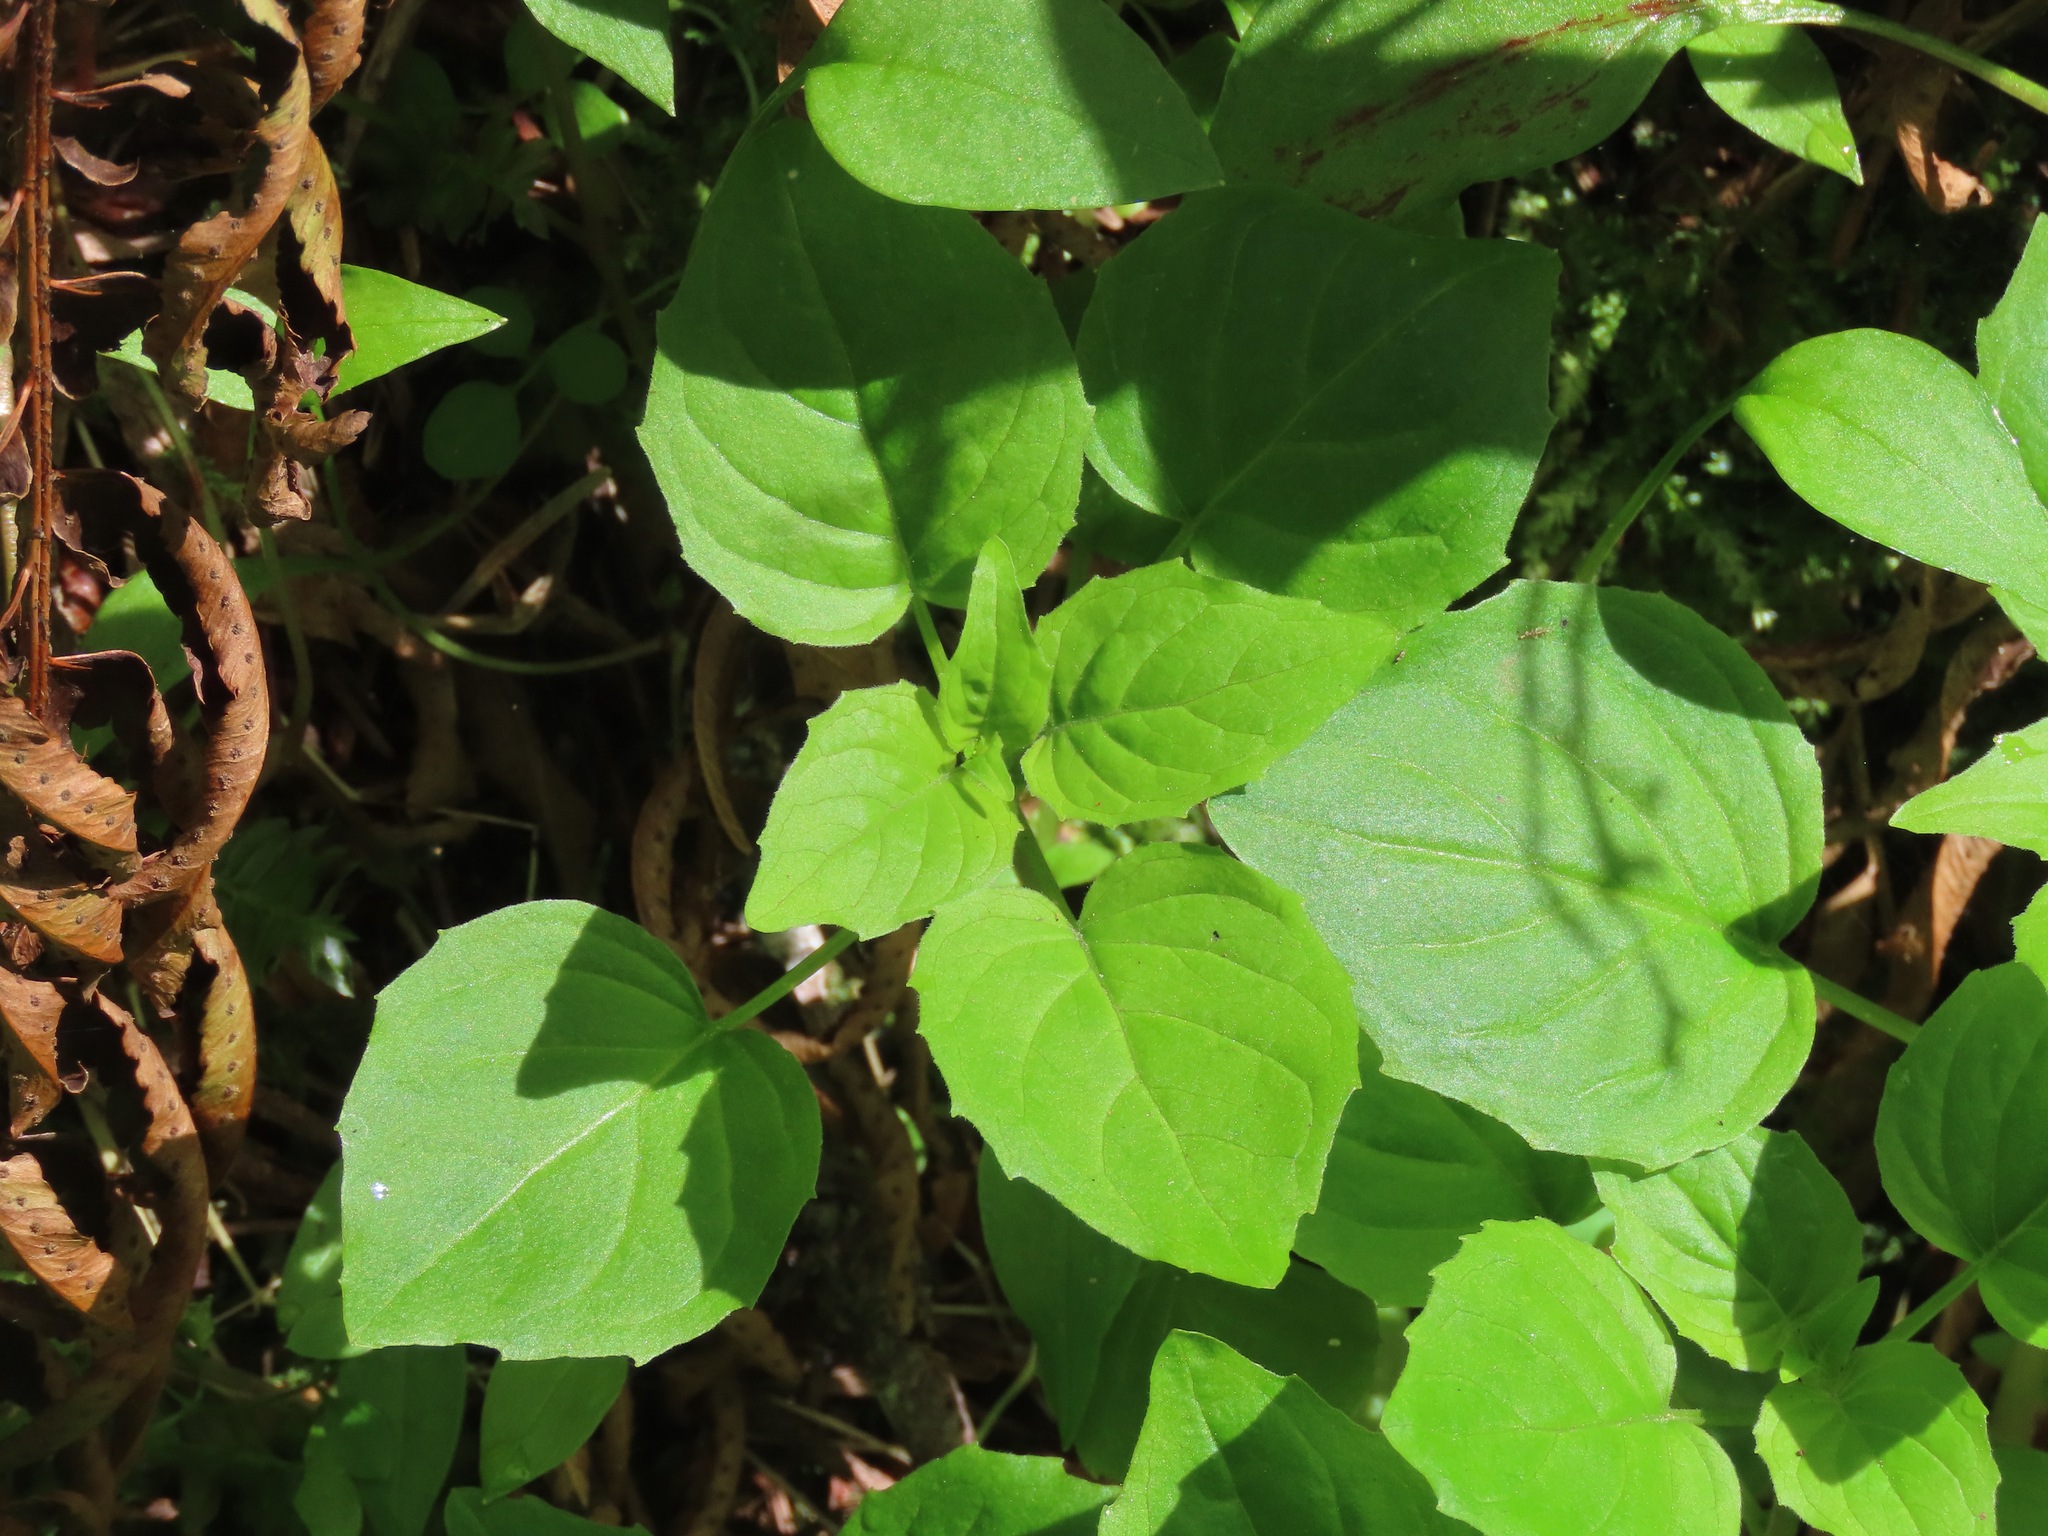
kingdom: Plantae
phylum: Tracheophyta
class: Magnoliopsida
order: Myrtales
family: Onagraceae
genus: Circaea
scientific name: Circaea alpina
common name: Alpine enchanter's-nightshade
